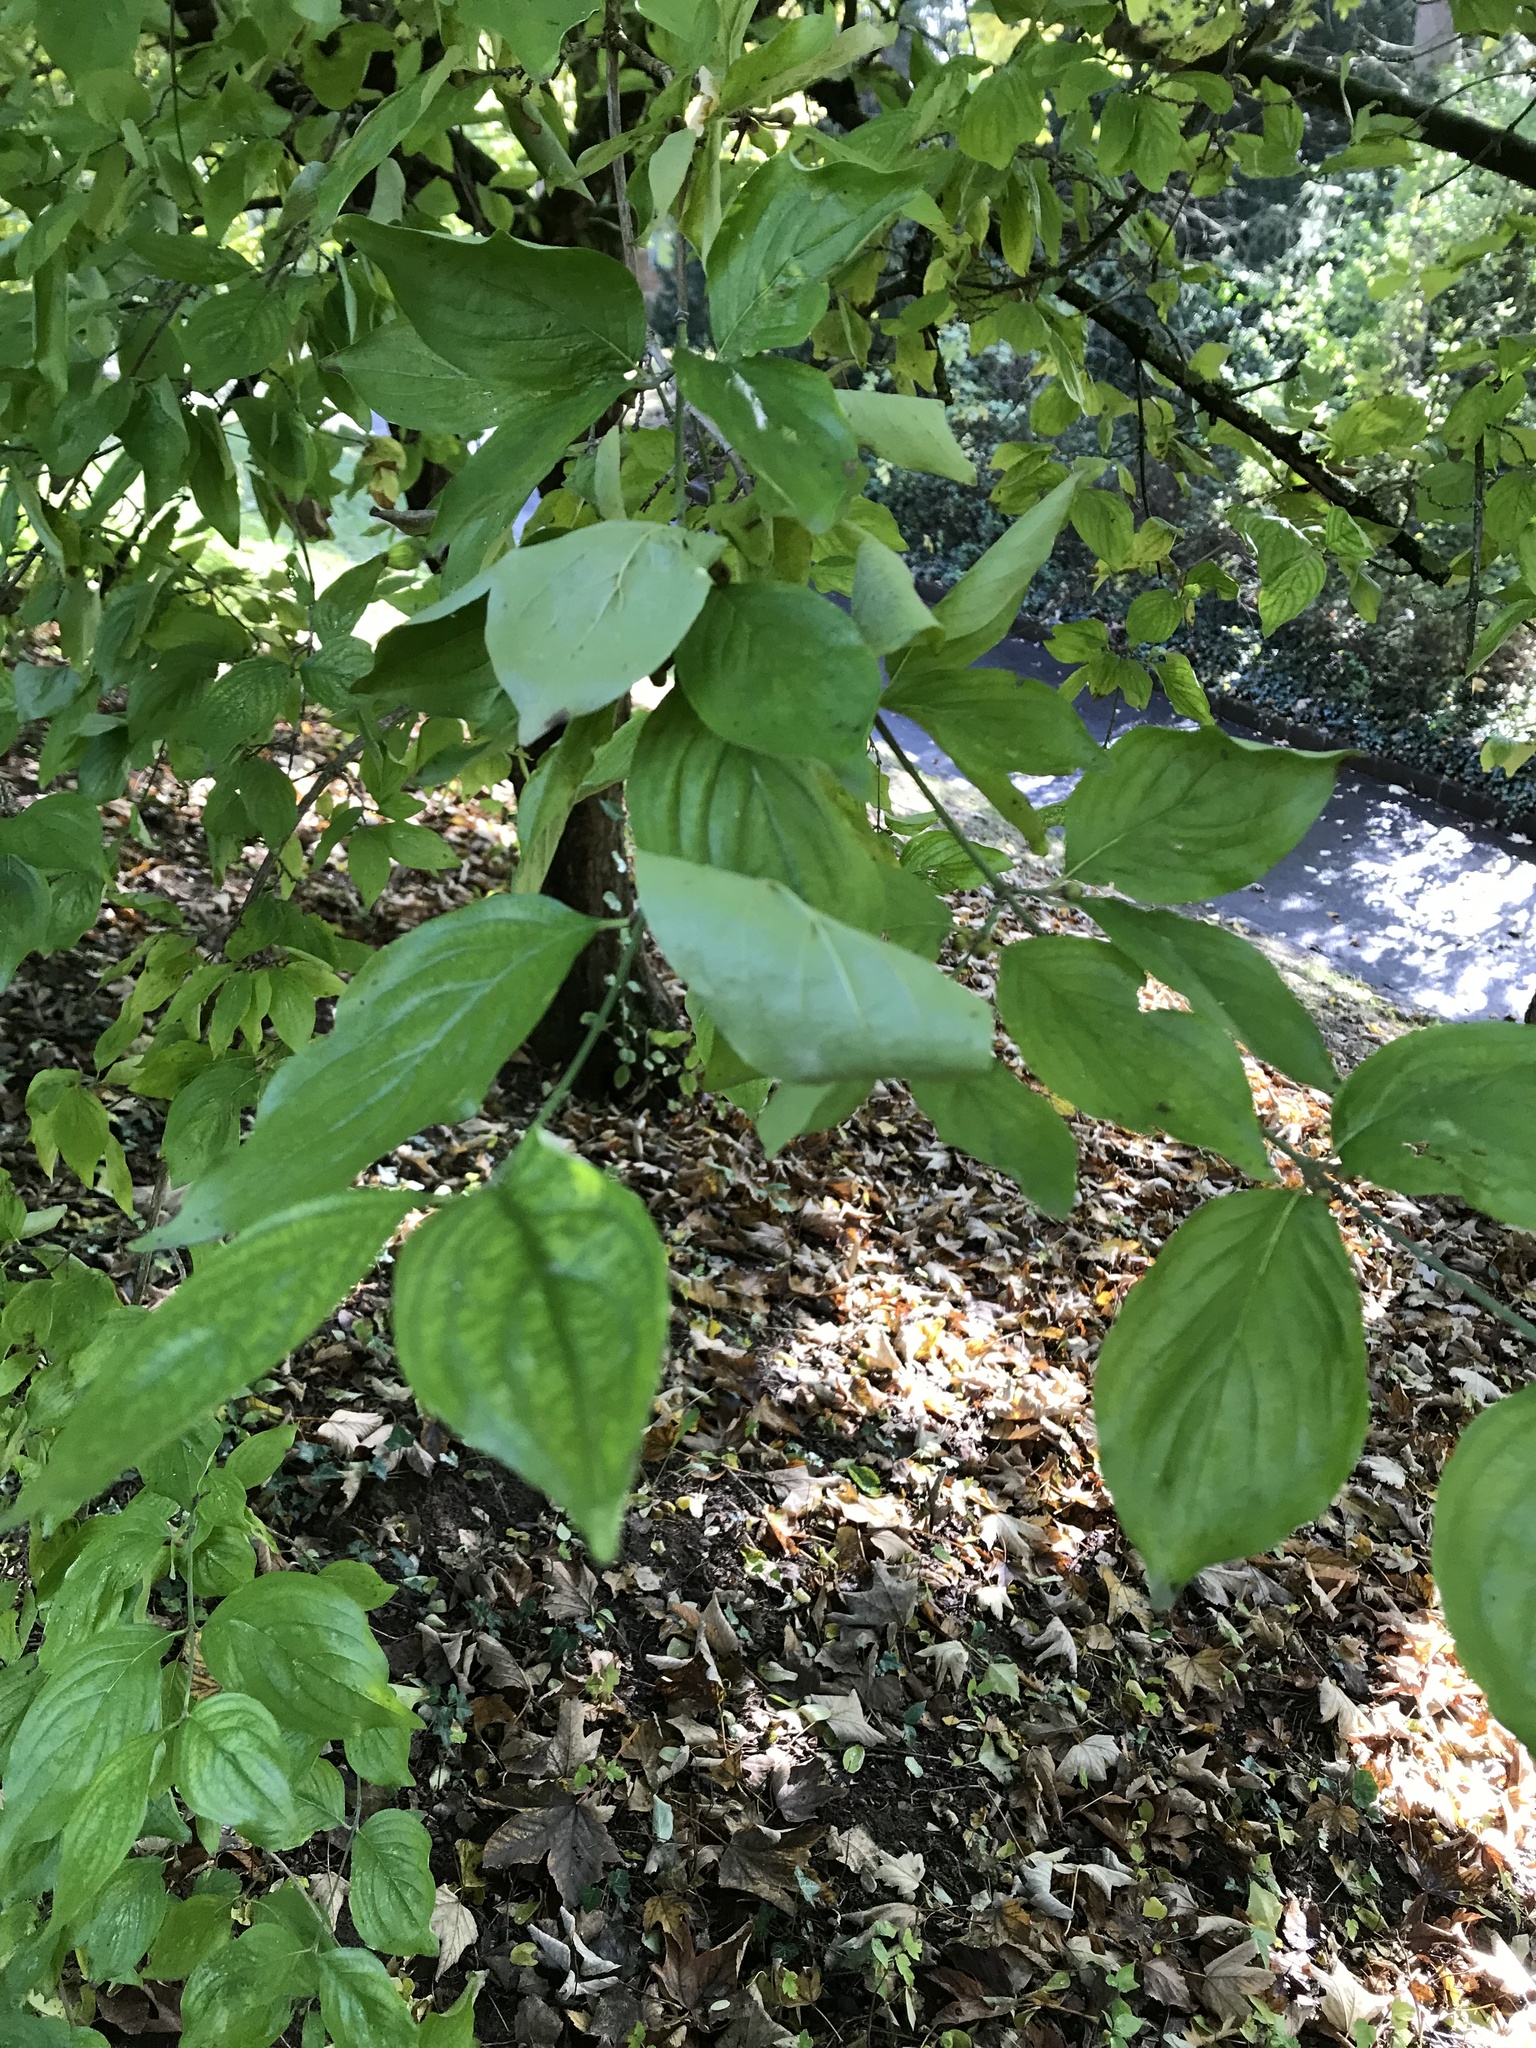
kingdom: Plantae
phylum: Tracheophyta
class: Magnoliopsida
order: Cornales
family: Cornaceae
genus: Cornus
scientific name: Cornus mas
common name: Cornelian-cherry
